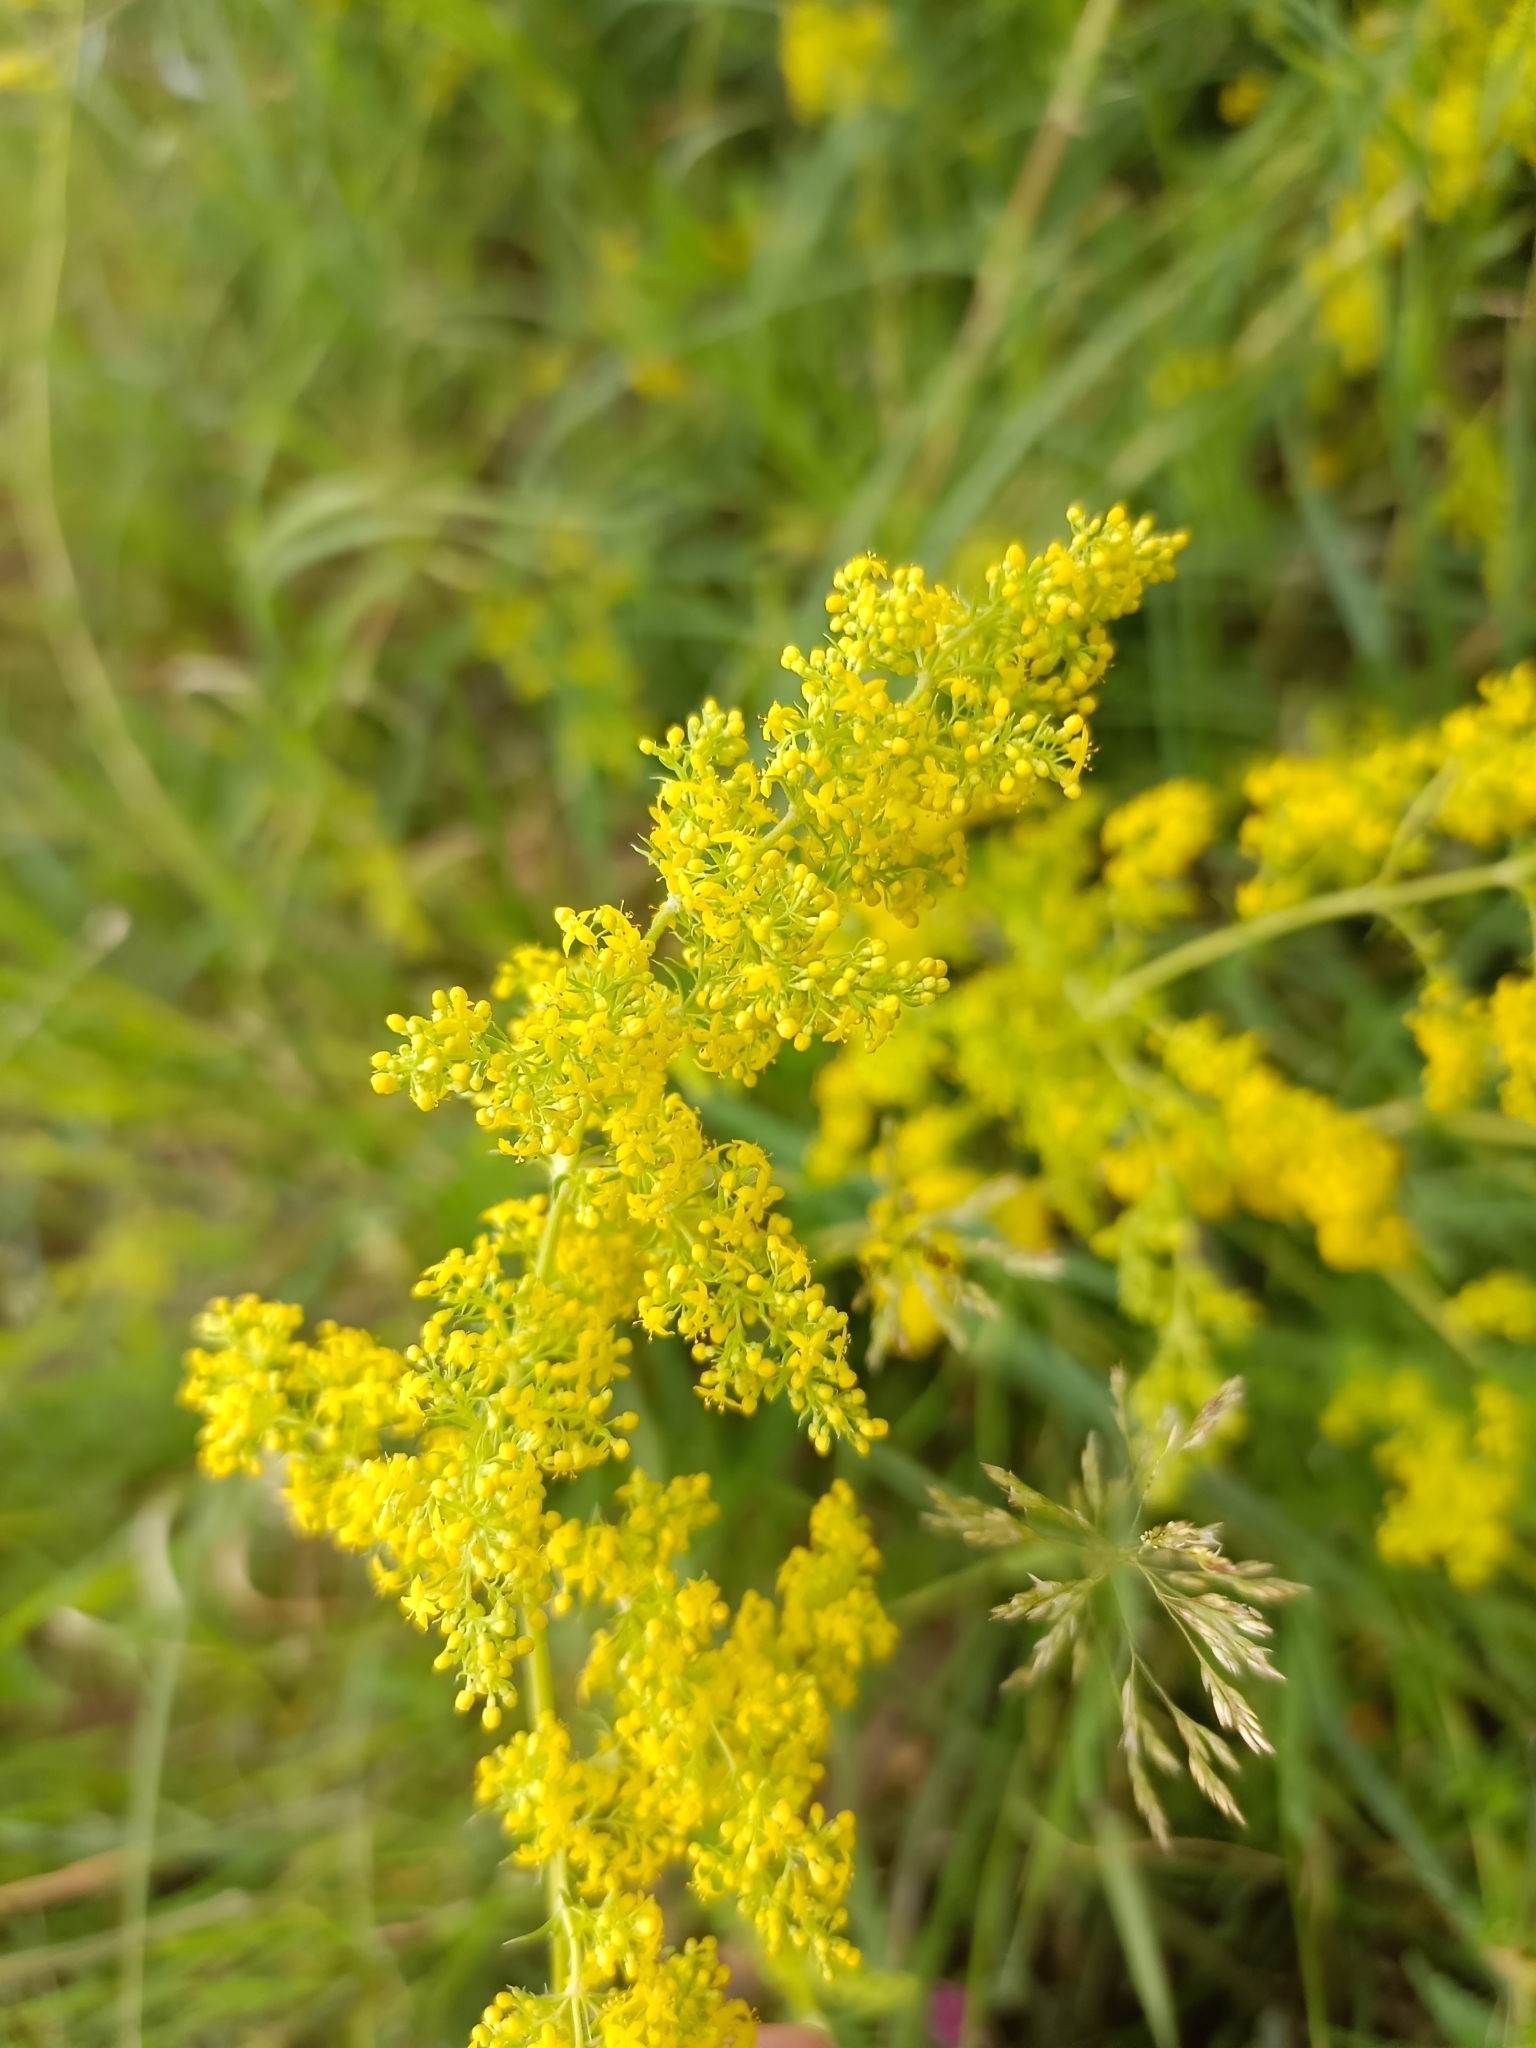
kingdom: Plantae
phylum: Tracheophyta
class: Magnoliopsida
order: Gentianales
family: Rubiaceae
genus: Galium
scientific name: Galium verum
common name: Lady's bedstraw
